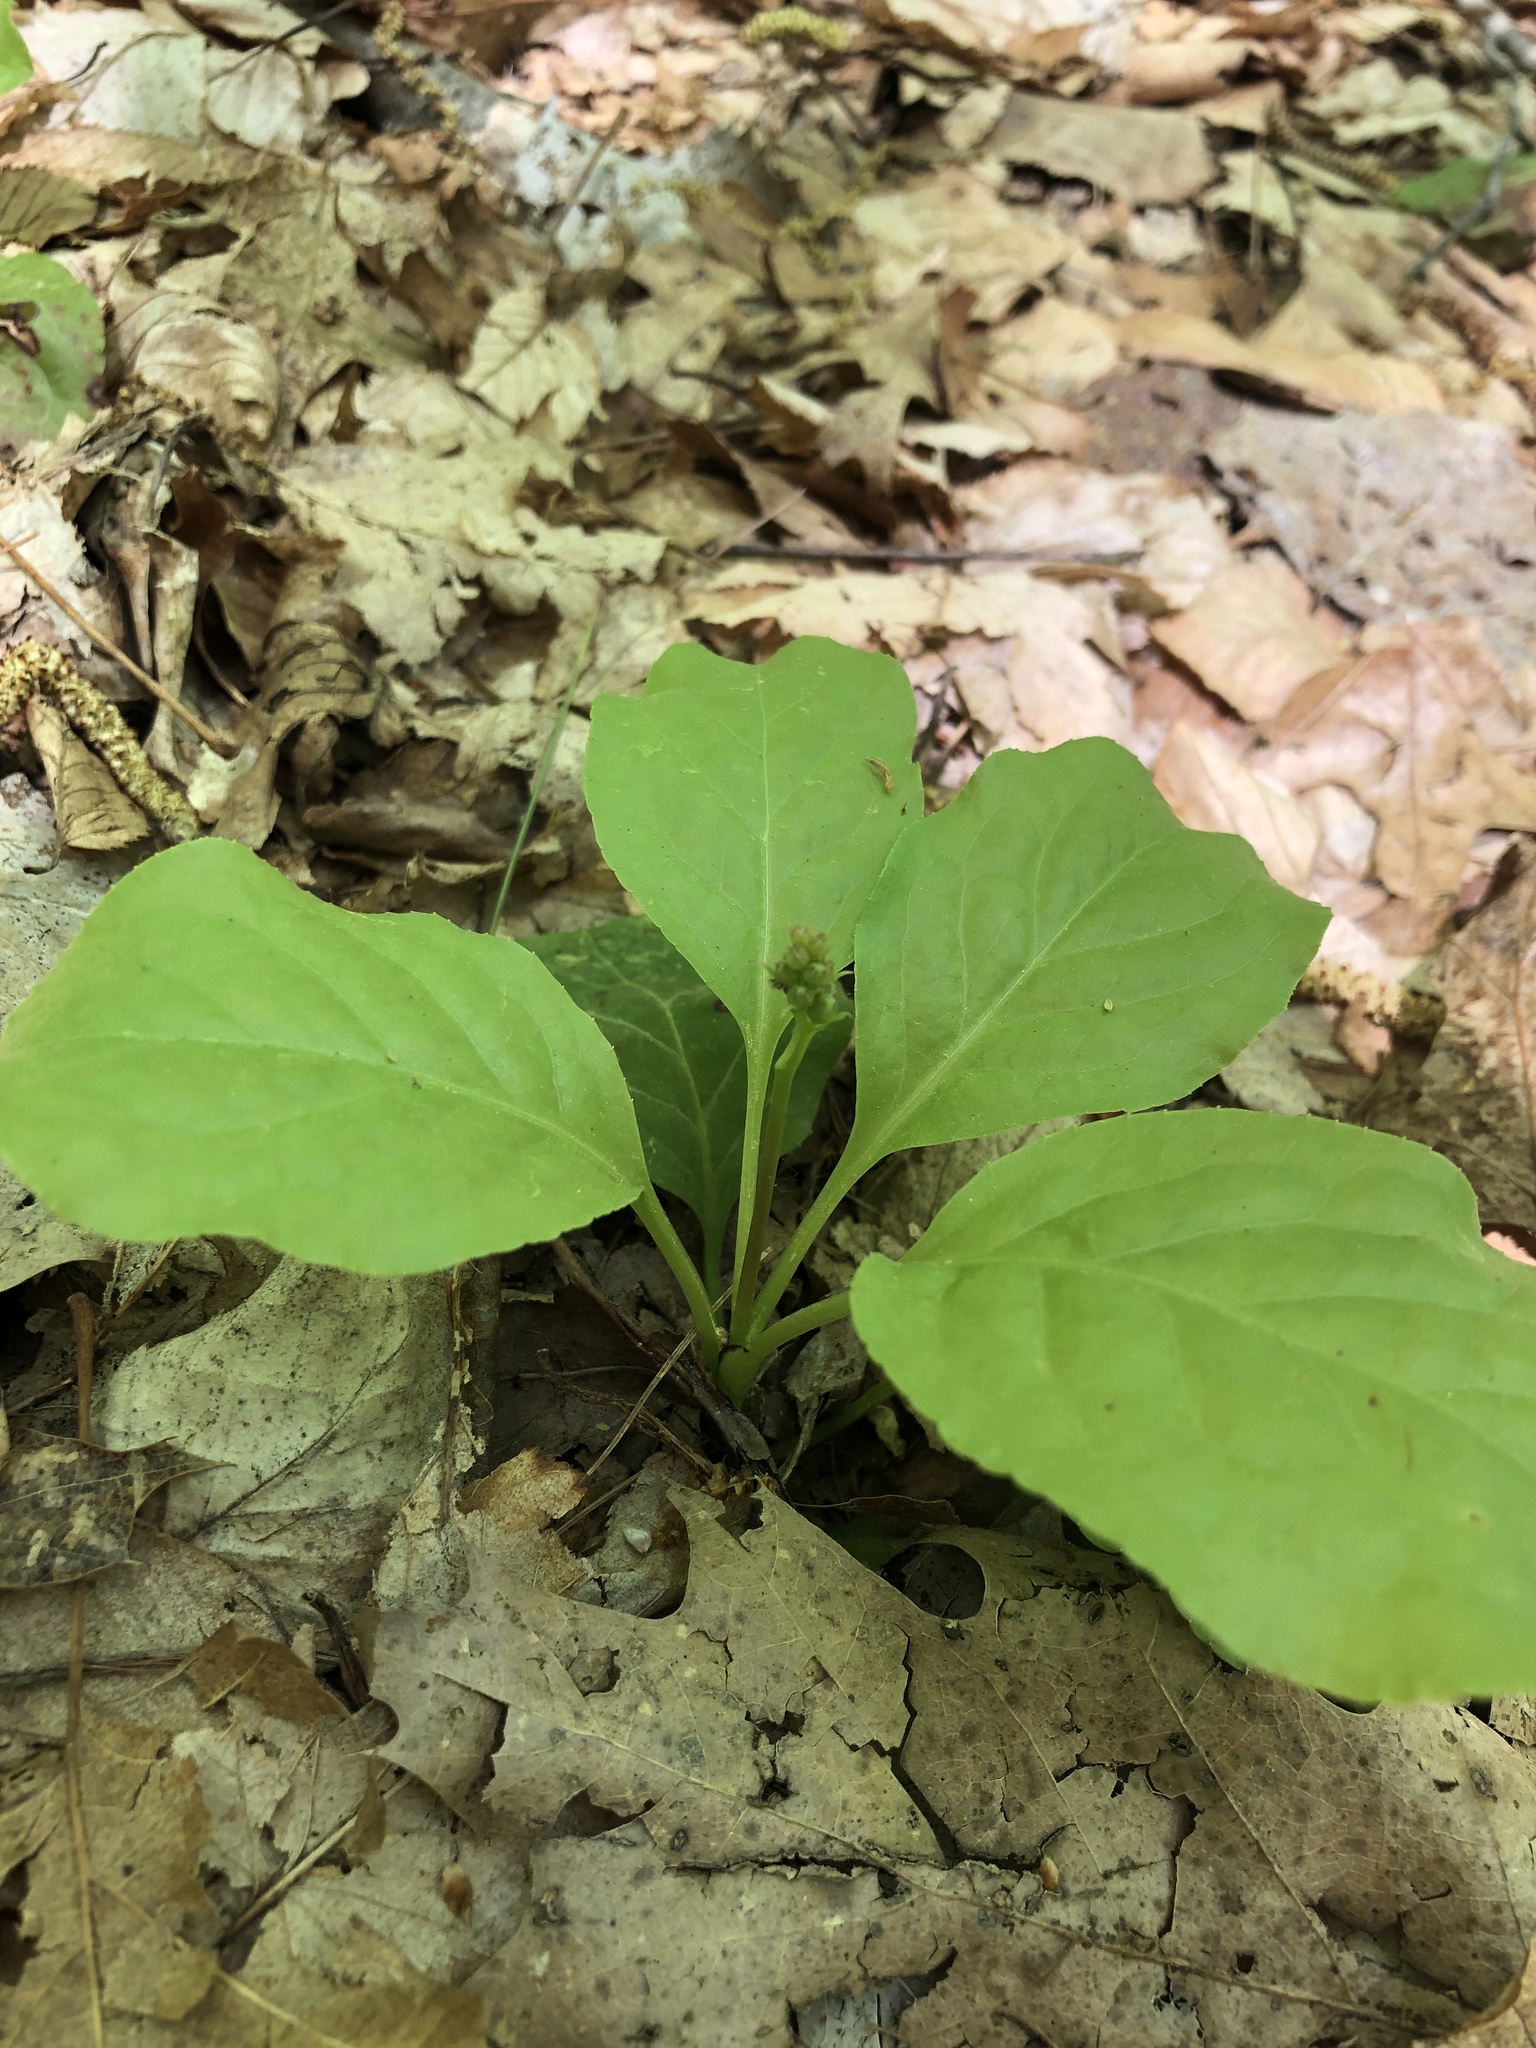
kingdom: Plantae
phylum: Tracheophyta
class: Magnoliopsida
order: Ericales
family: Ericaceae
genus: Pyrola
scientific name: Pyrola elliptica
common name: Shinleaf
